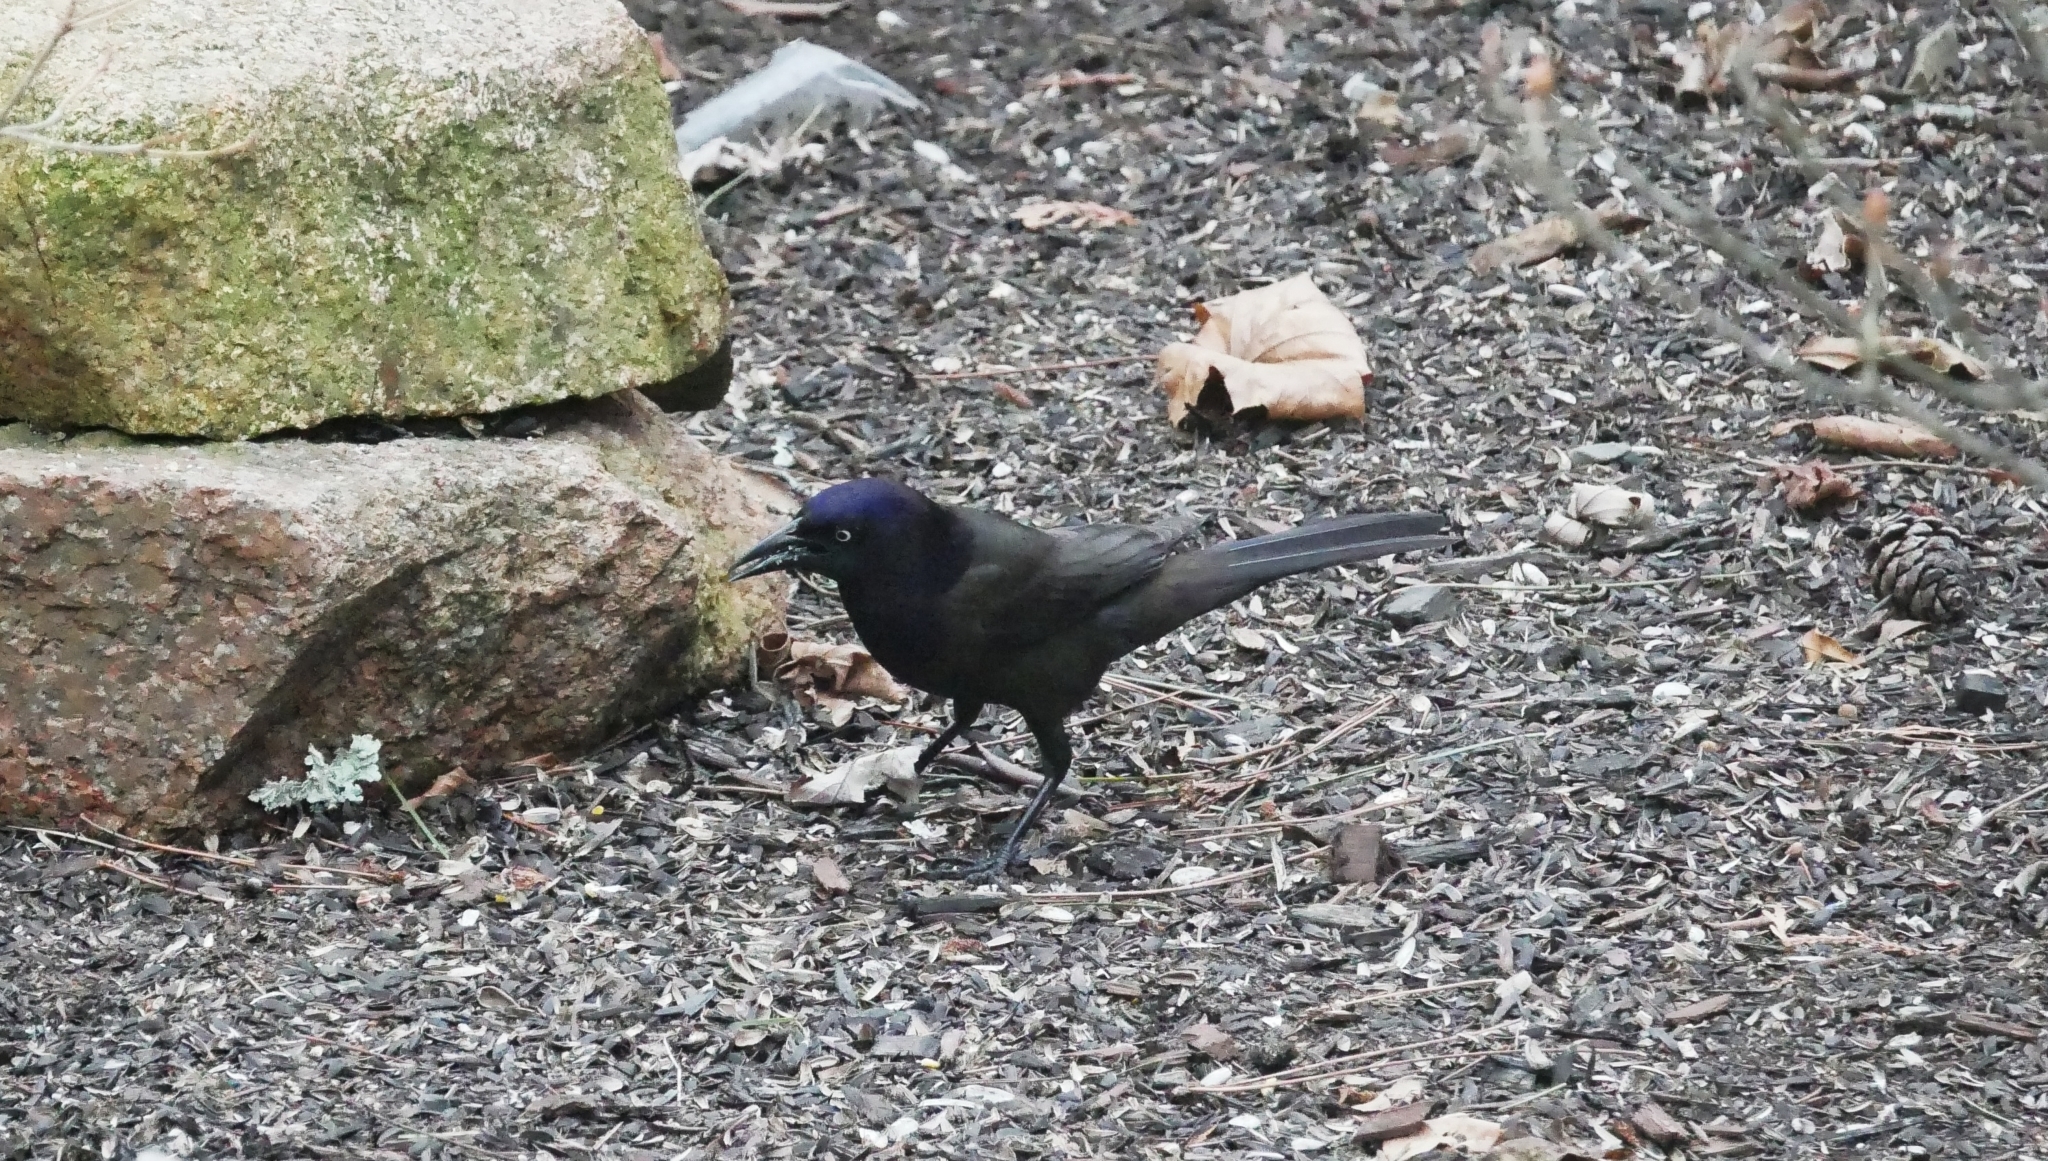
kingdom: Animalia
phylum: Chordata
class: Aves
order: Passeriformes
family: Icteridae
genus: Quiscalus
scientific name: Quiscalus quiscula
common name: Common grackle
